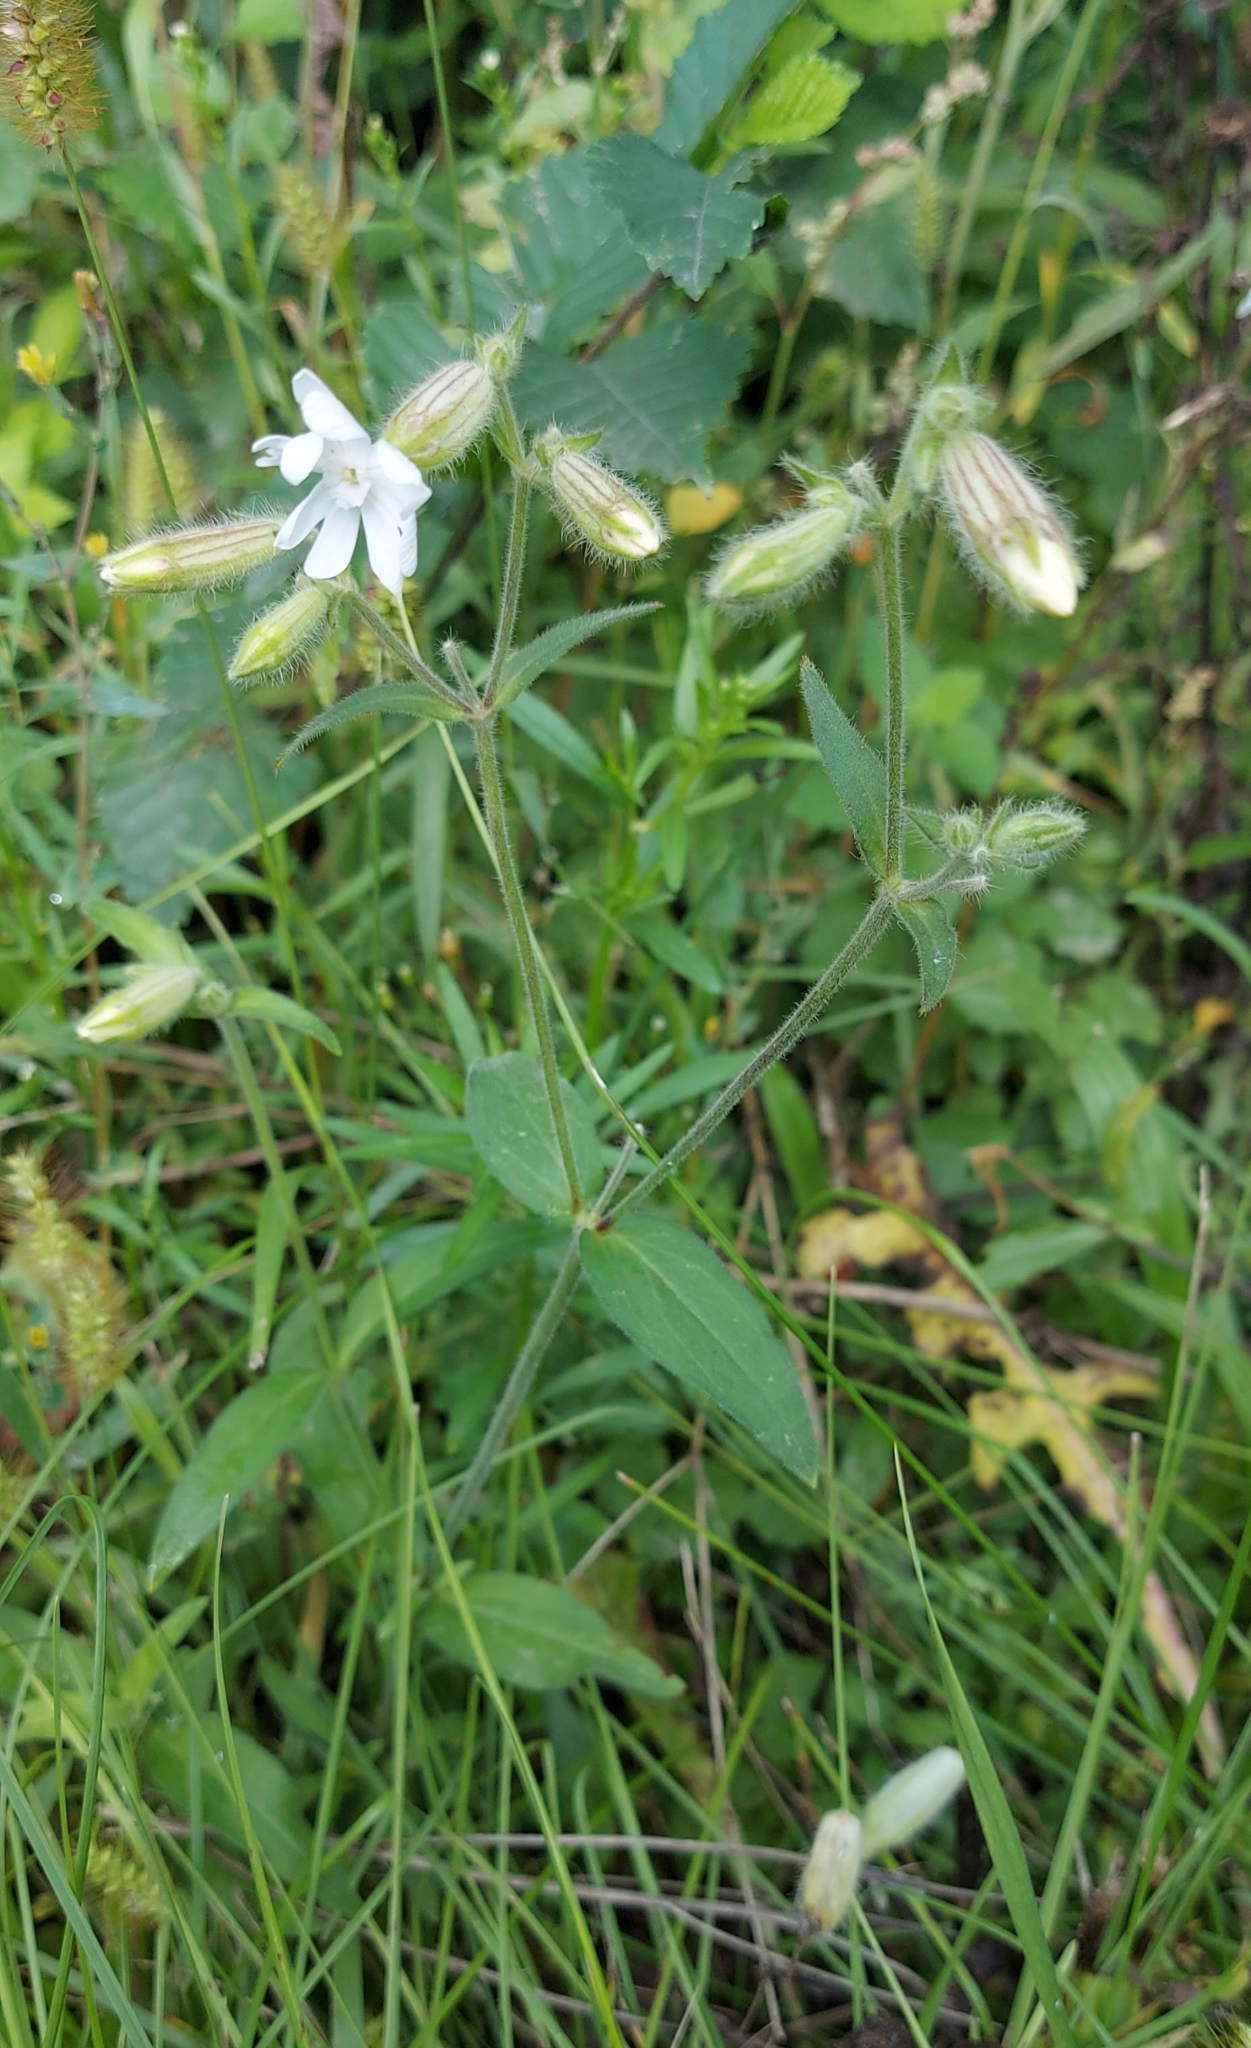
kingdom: Plantae
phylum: Tracheophyta
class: Magnoliopsida
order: Caryophyllales
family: Caryophyllaceae
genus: Silene
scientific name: Silene latifolia
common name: White campion
